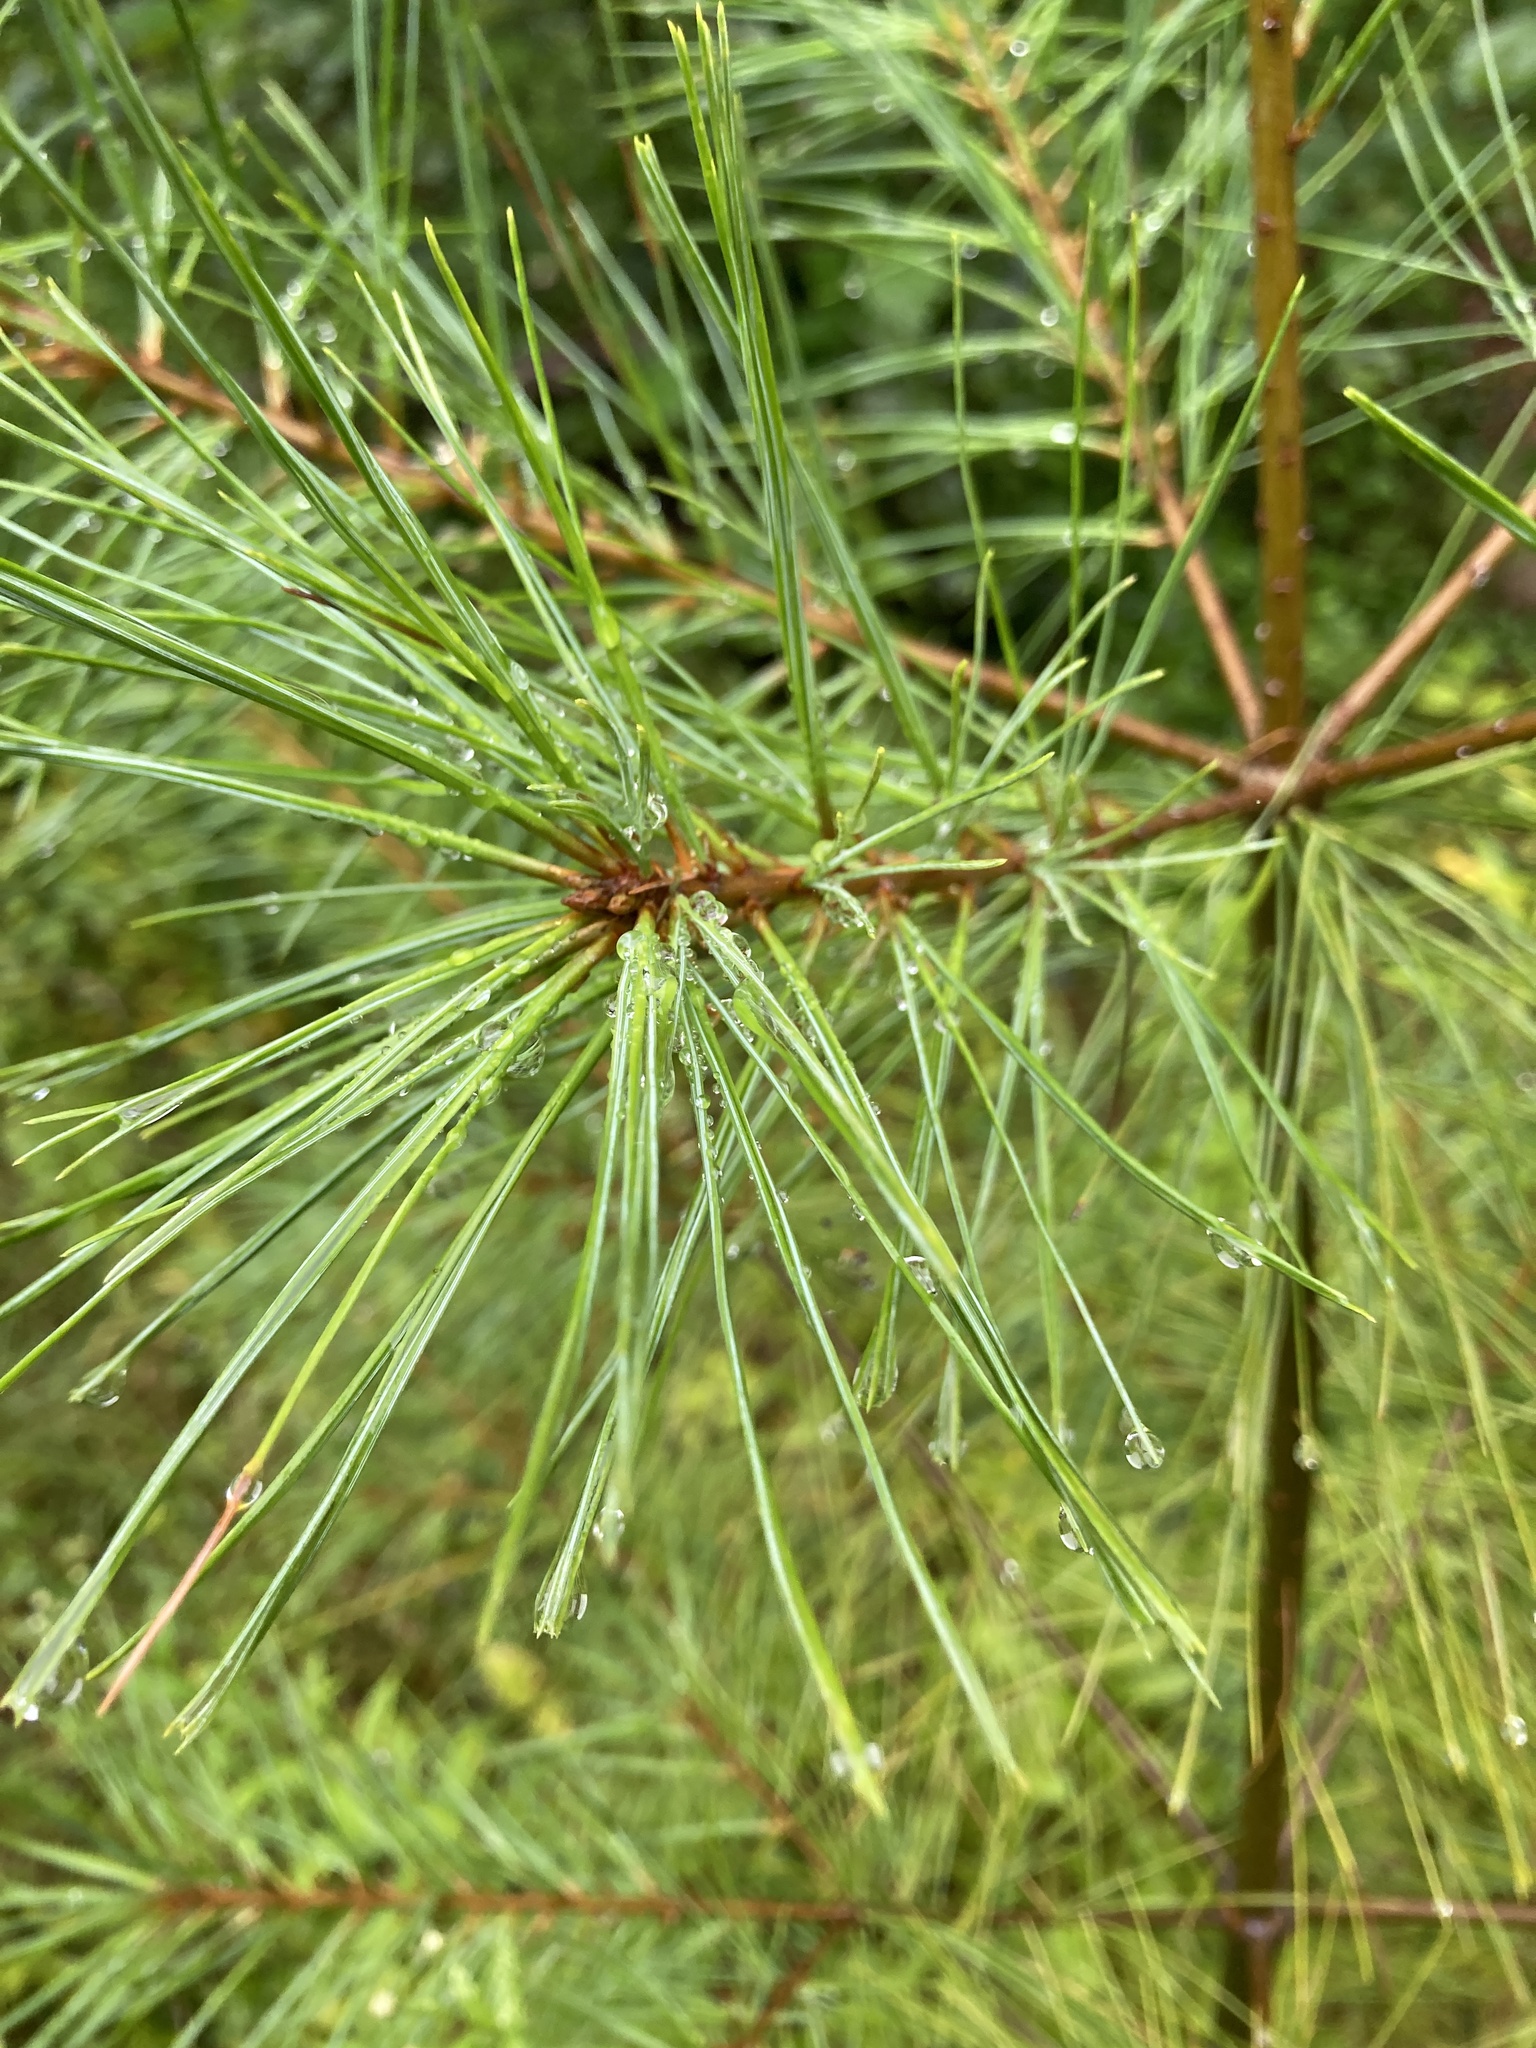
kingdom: Plantae
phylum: Tracheophyta
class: Pinopsida
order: Pinales
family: Pinaceae
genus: Pinus
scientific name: Pinus strobus
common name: Weymouth pine
